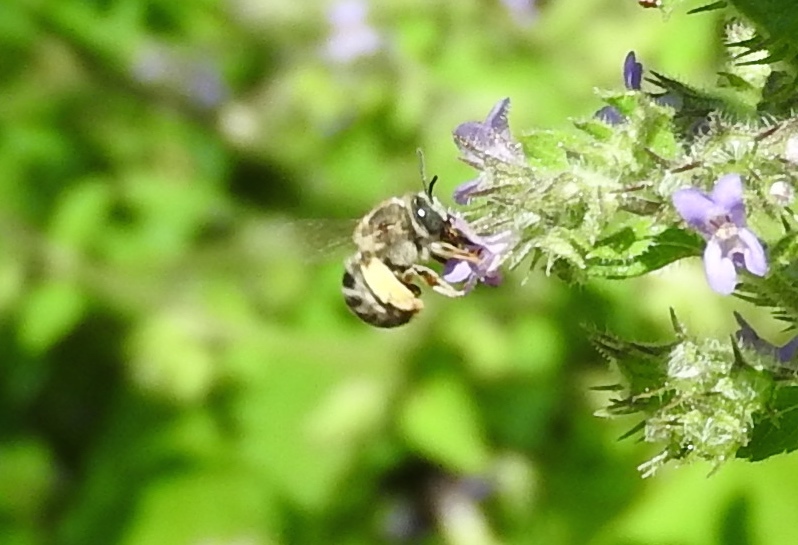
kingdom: Animalia
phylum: Arthropoda
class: Insecta
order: Hymenoptera
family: Apidae
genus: Apidae
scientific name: Apidae
